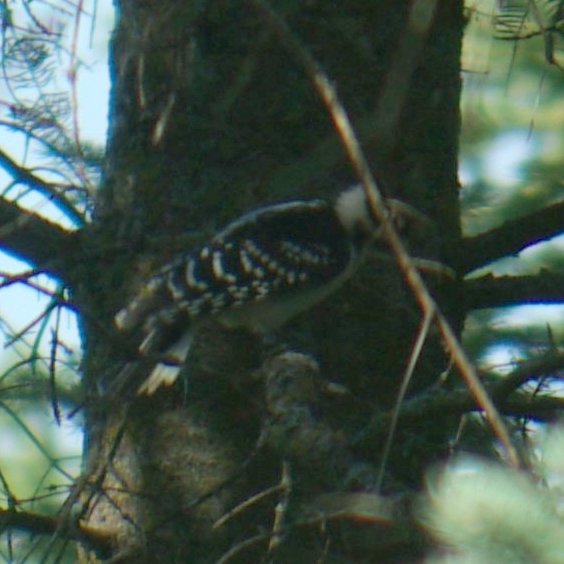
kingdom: Animalia
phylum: Chordata
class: Aves
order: Piciformes
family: Picidae
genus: Leuconotopicus
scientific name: Leuconotopicus villosus
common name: Hairy woodpecker
